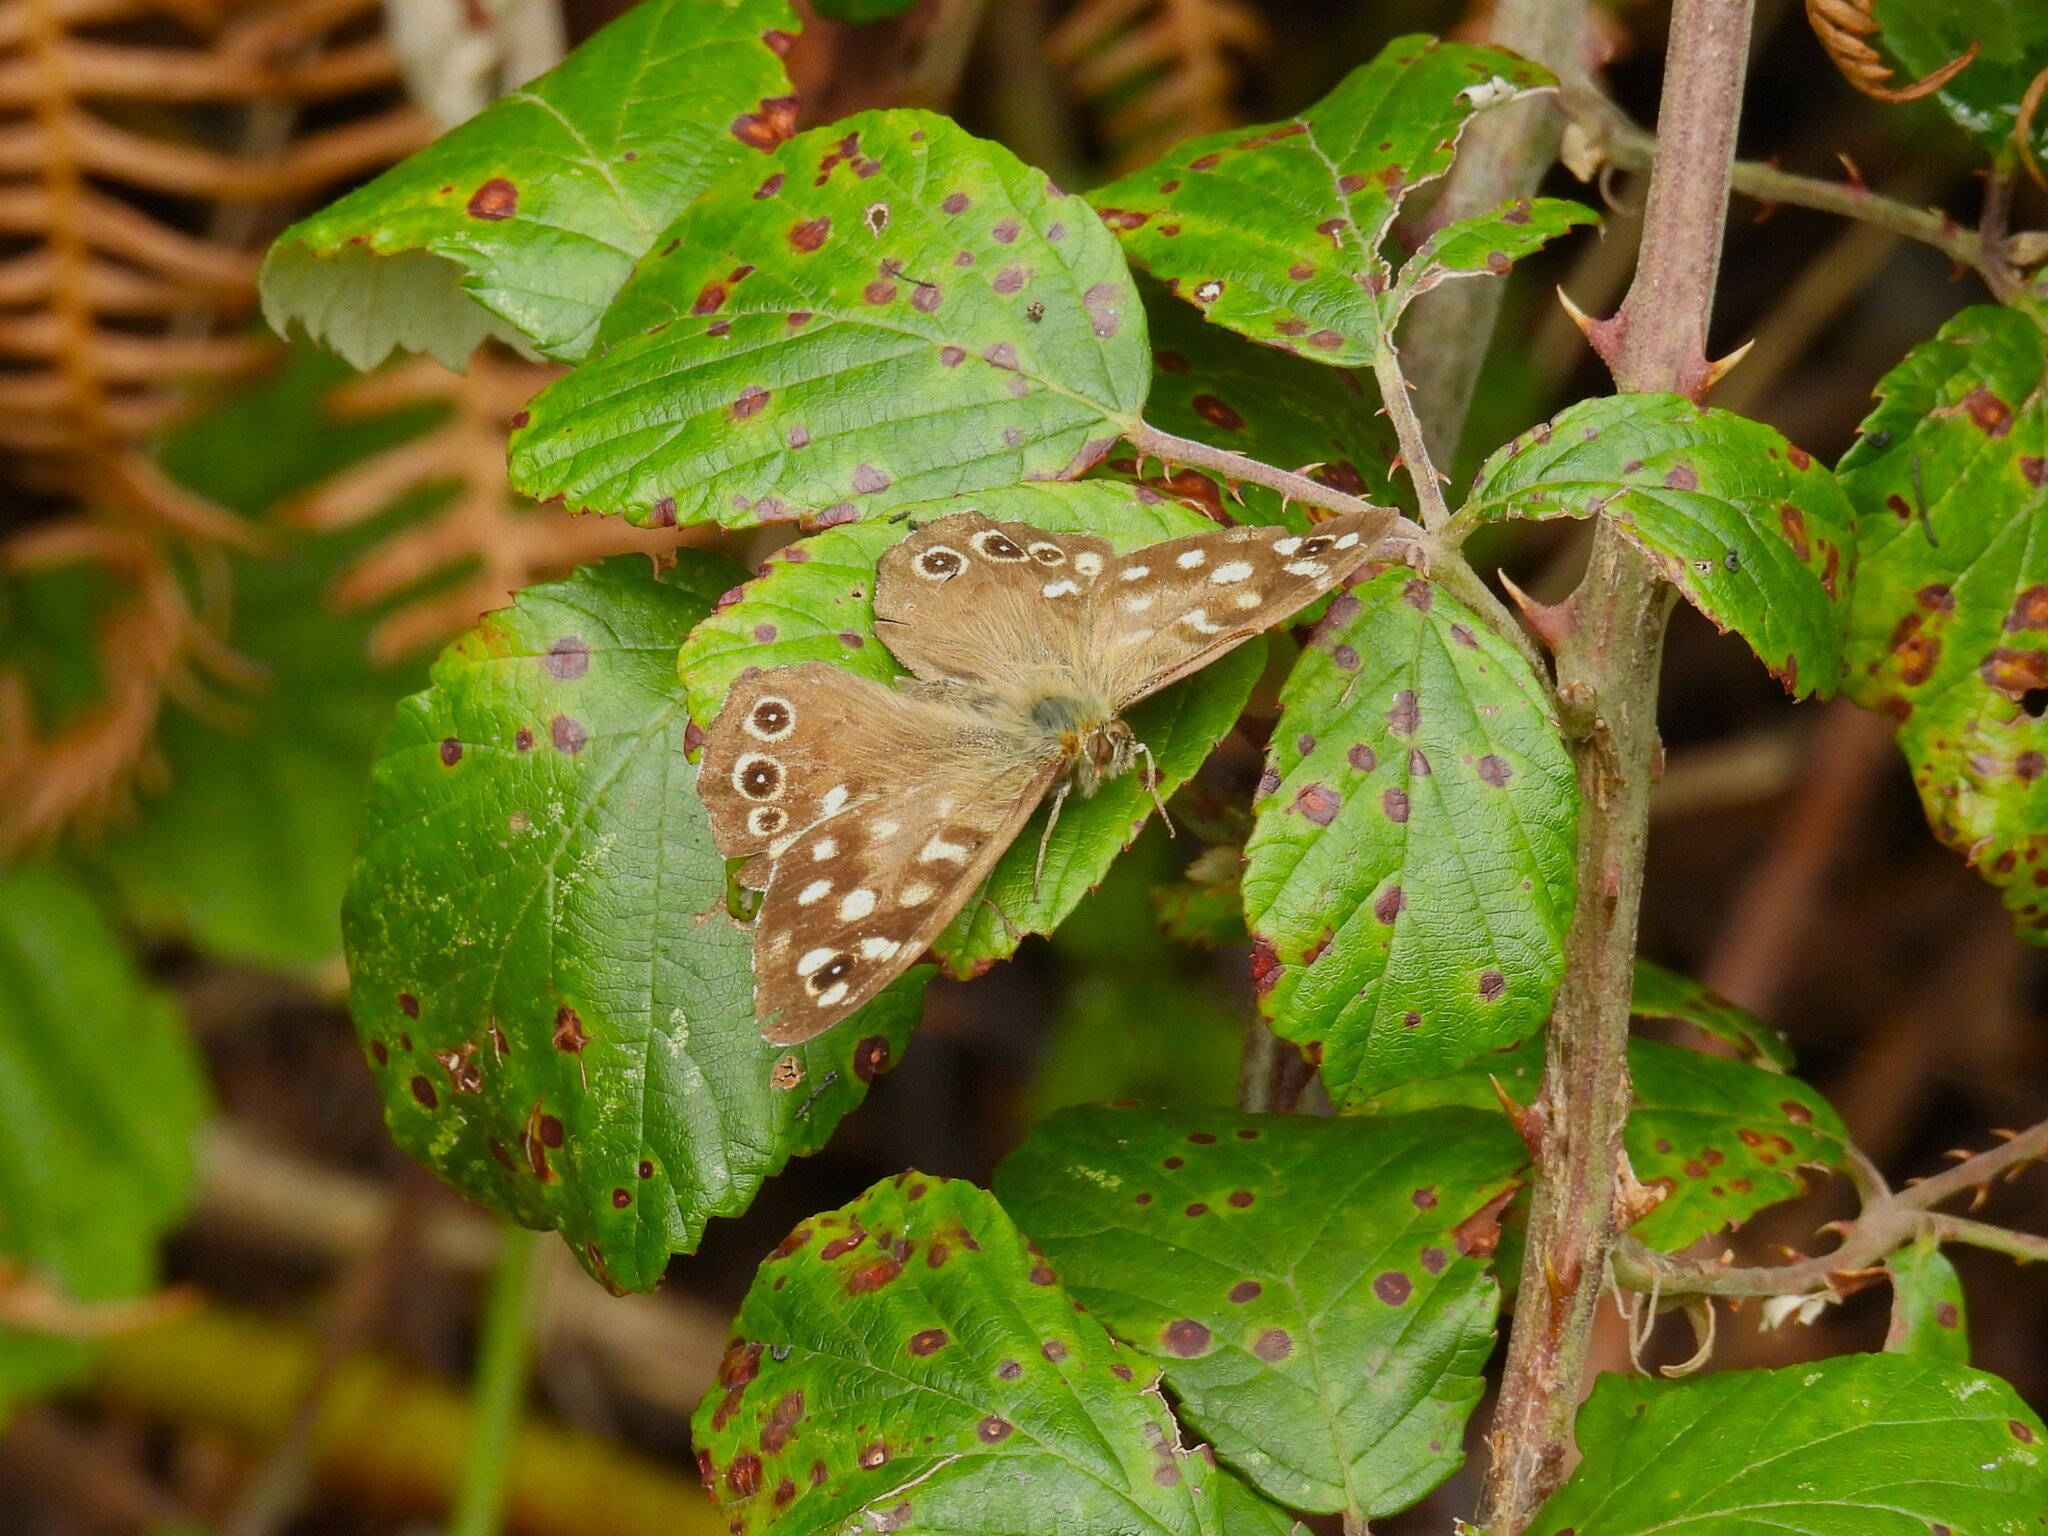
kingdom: Animalia
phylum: Arthropoda
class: Insecta
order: Lepidoptera
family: Nymphalidae
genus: Pararge
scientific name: Pararge aegeria
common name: Speckled wood
